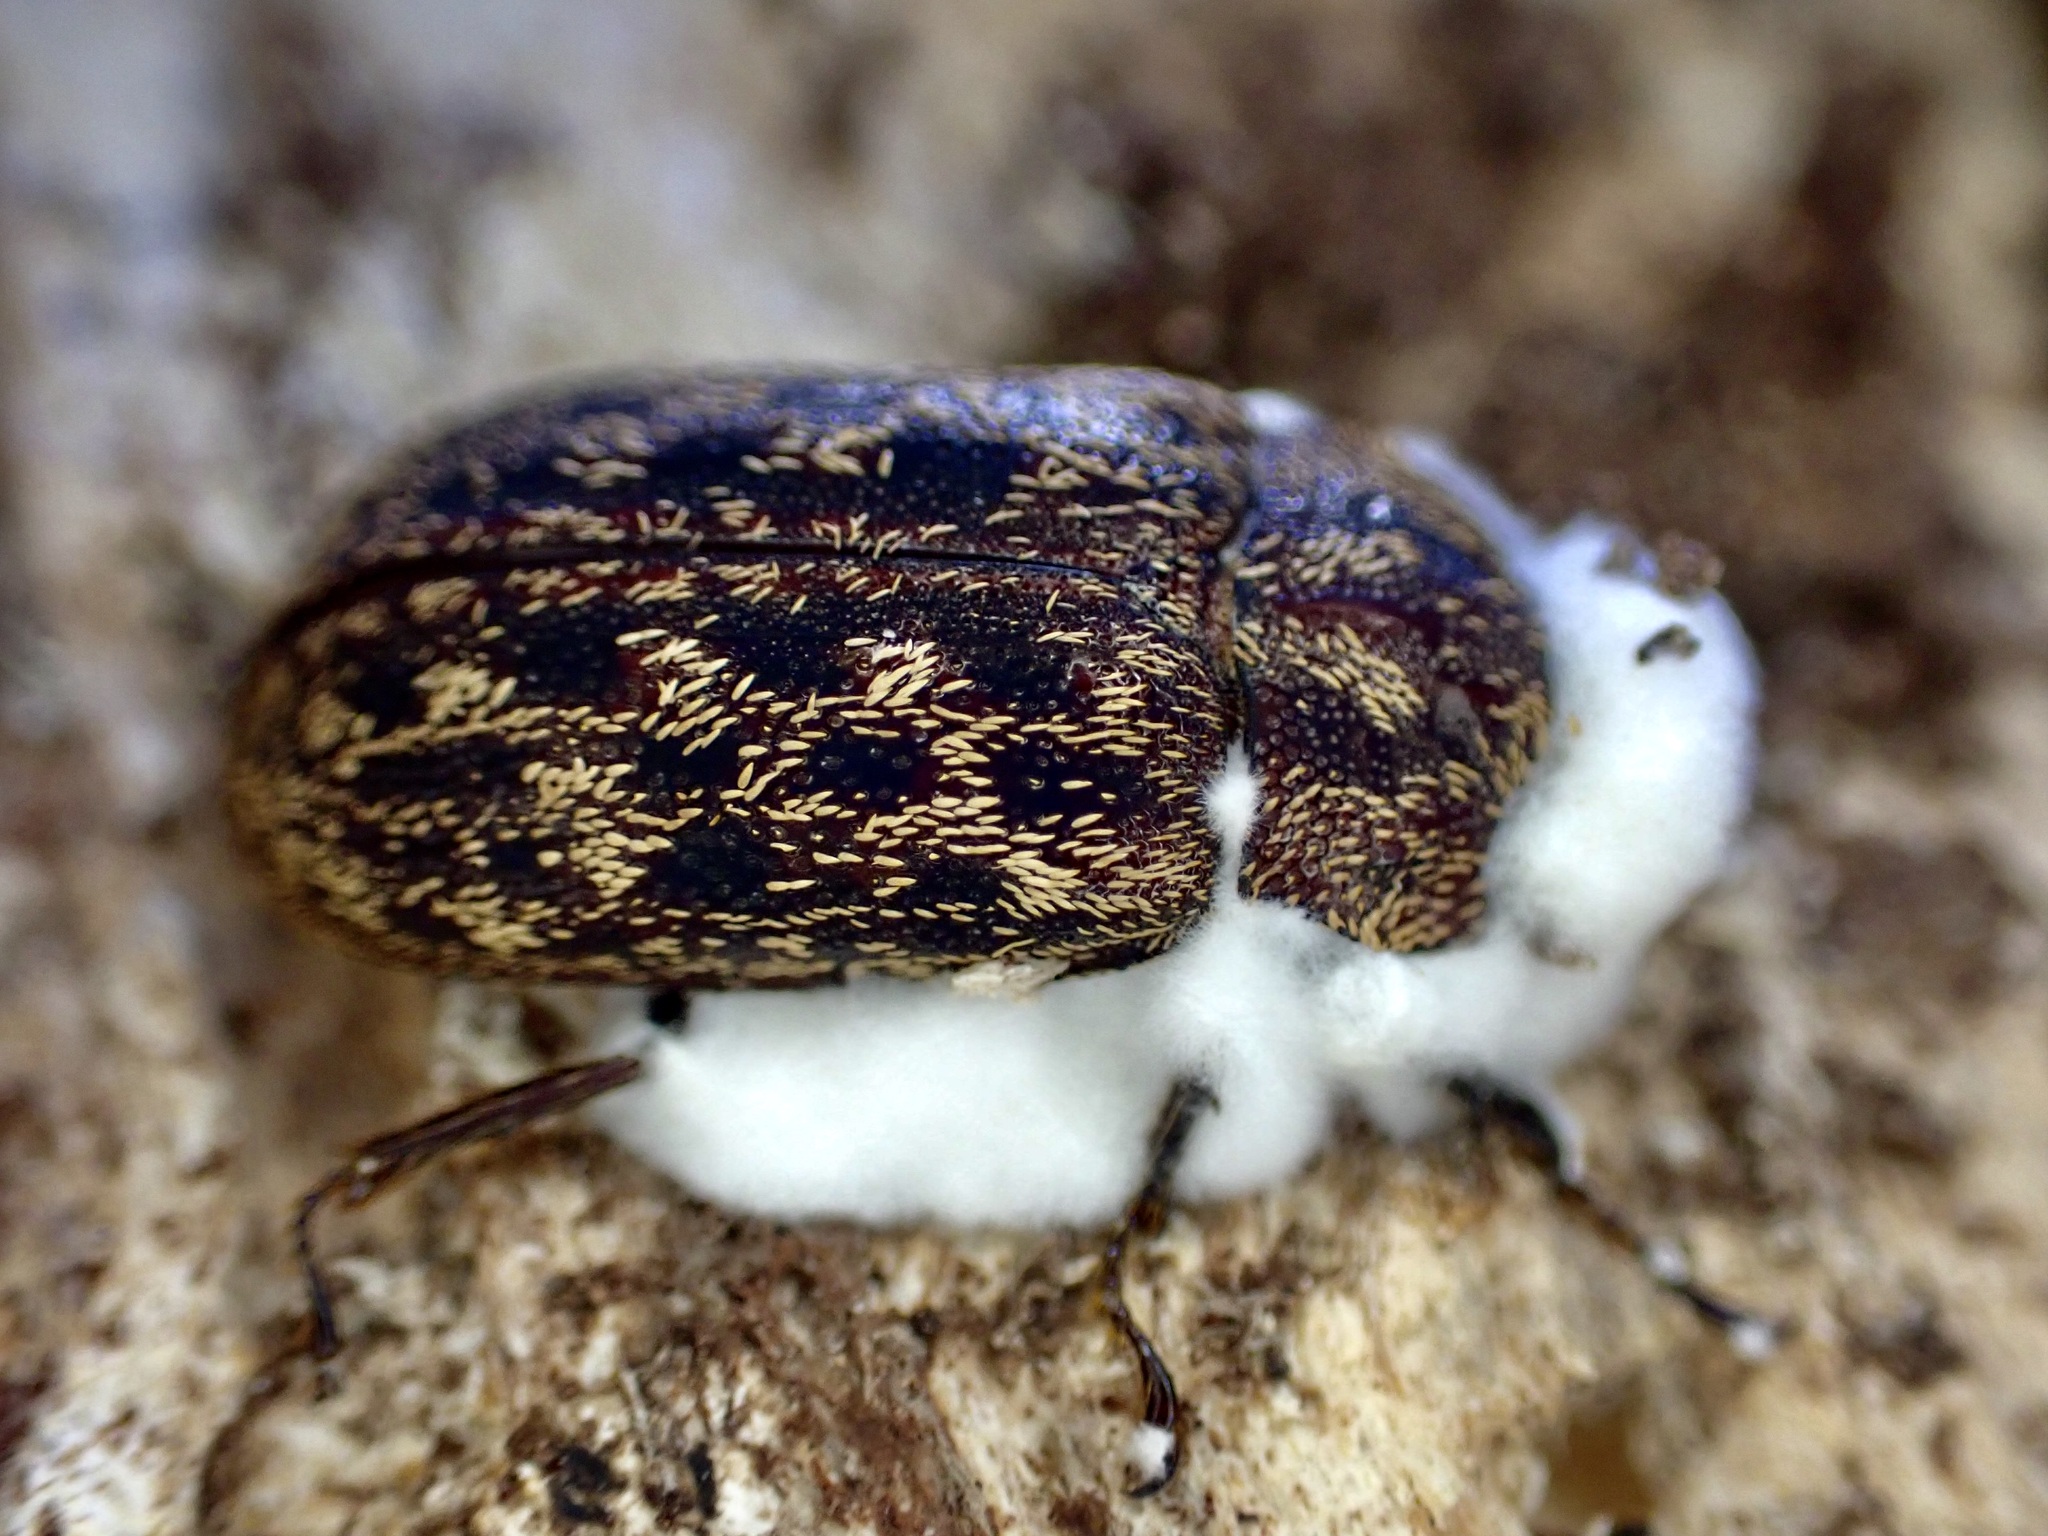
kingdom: Animalia
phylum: Arthropoda
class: Insecta
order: Coleoptera
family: Lucanidae
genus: Mitophyllus
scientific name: Mitophyllus parrianus
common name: Parry's stag beetle
